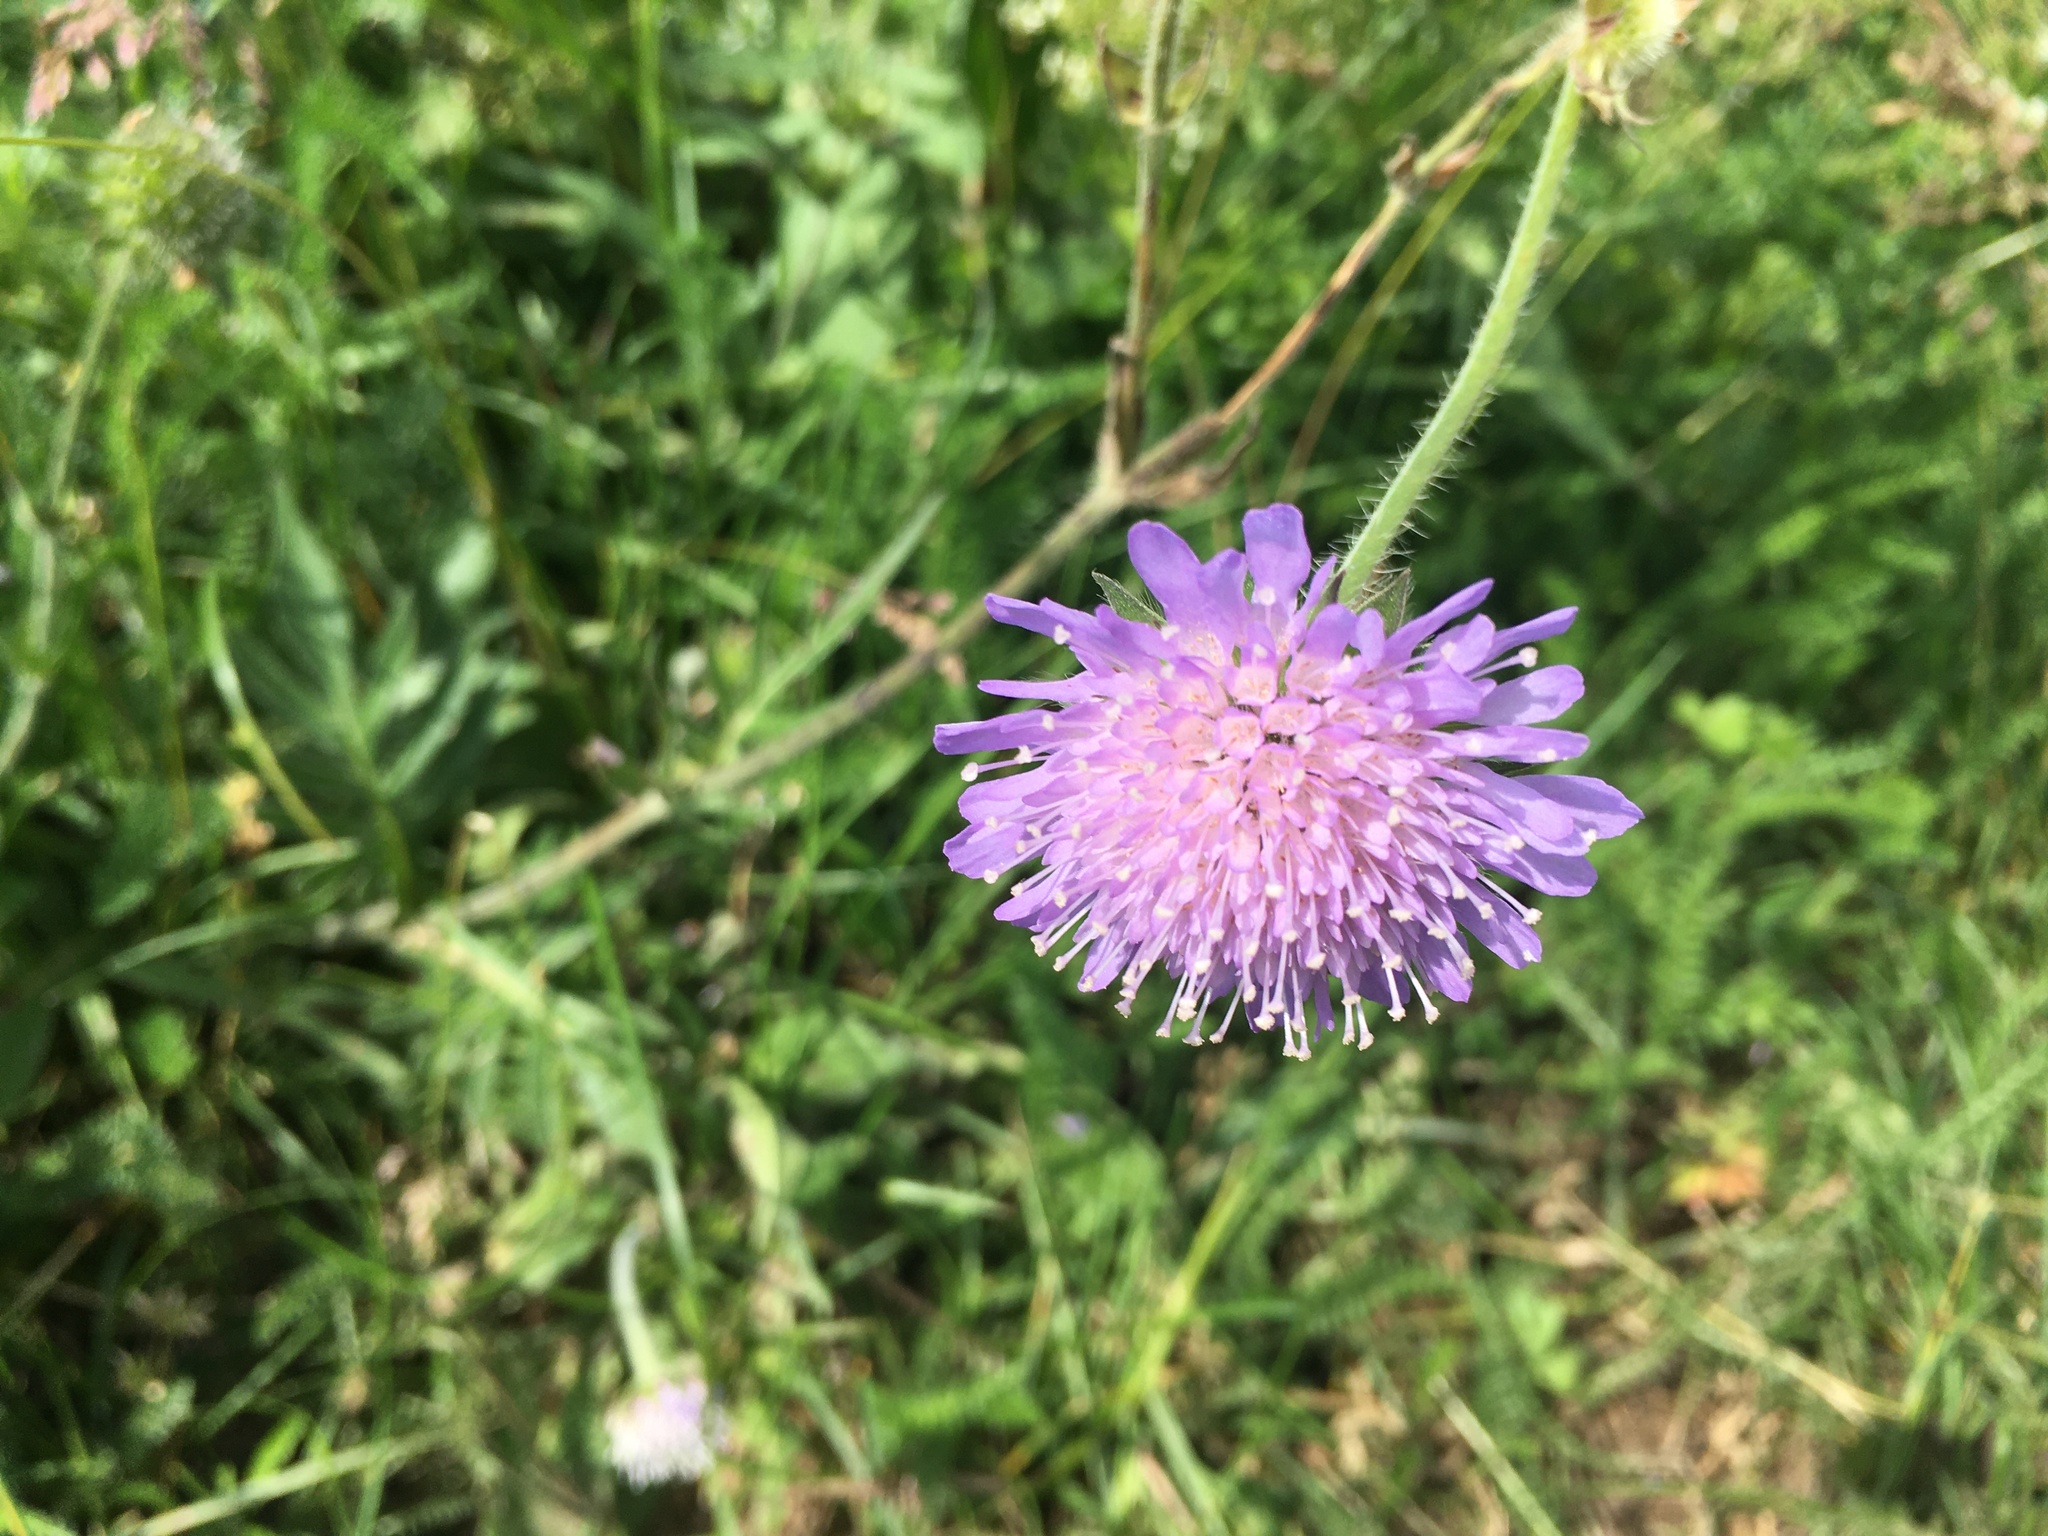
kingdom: Plantae
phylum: Tracheophyta
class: Magnoliopsida
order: Dipsacales
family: Caprifoliaceae
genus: Knautia
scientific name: Knautia arvensis
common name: Field scabiosa
